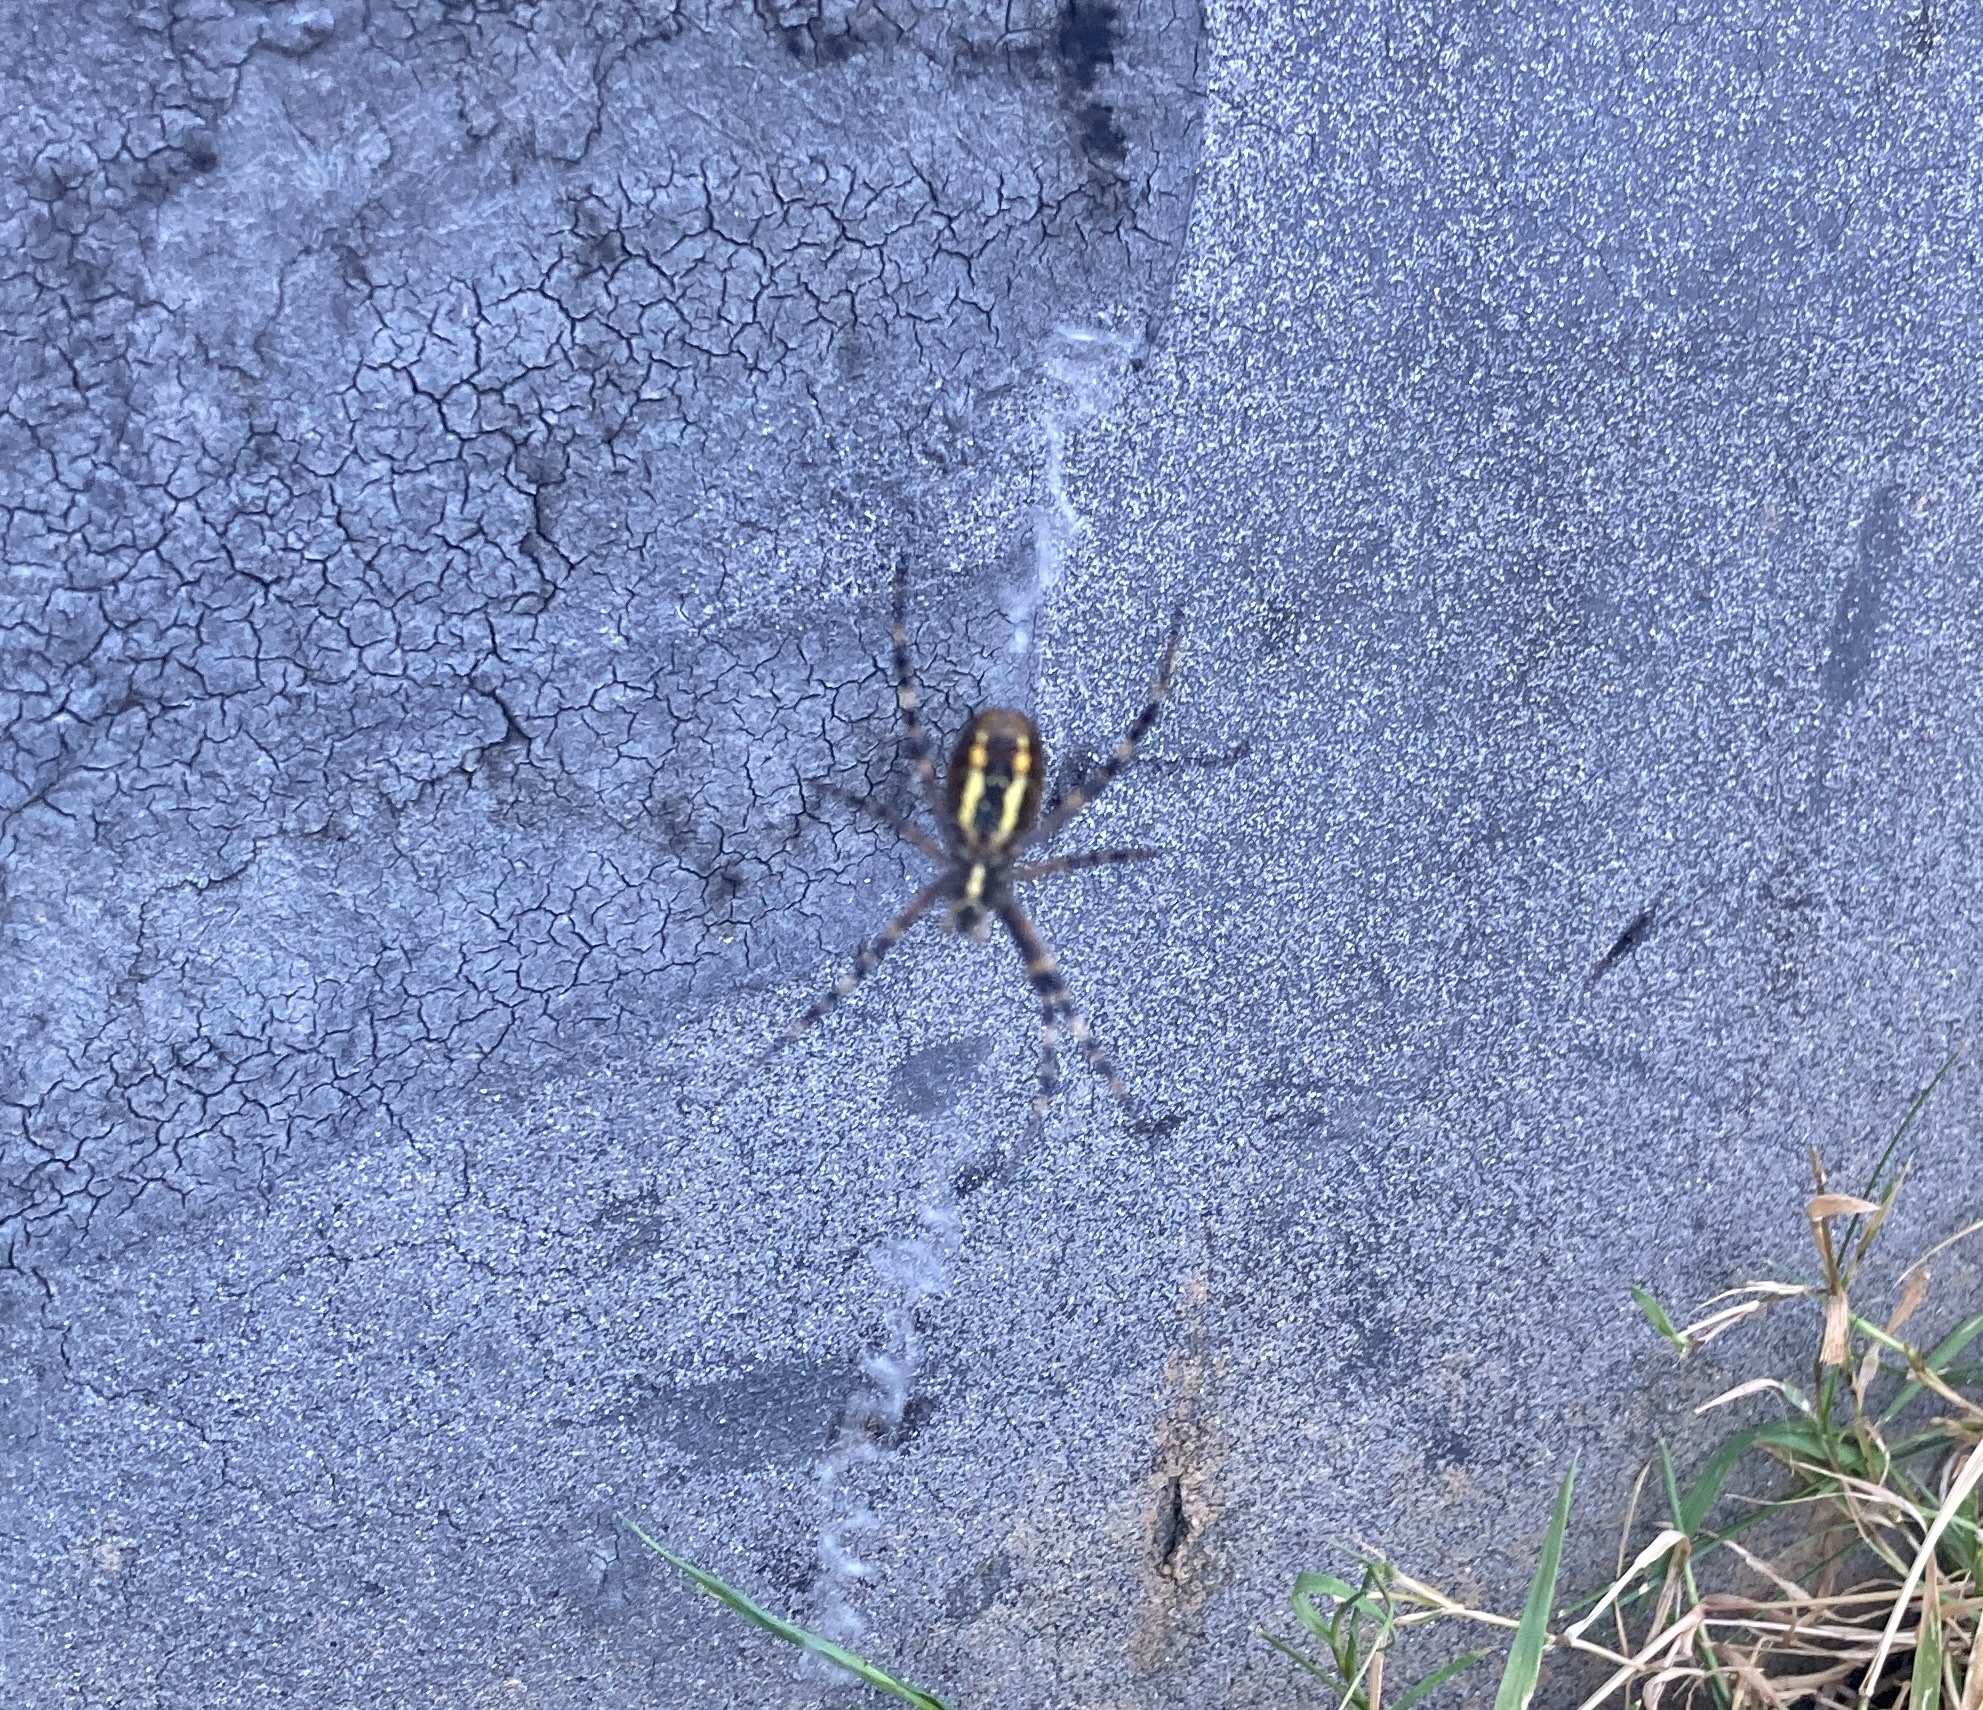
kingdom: Animalia
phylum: Arthropoda
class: Arachnida
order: Araneae
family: Araneidae
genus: Argiope
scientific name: Argiope bruennichi
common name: Wasp spider
